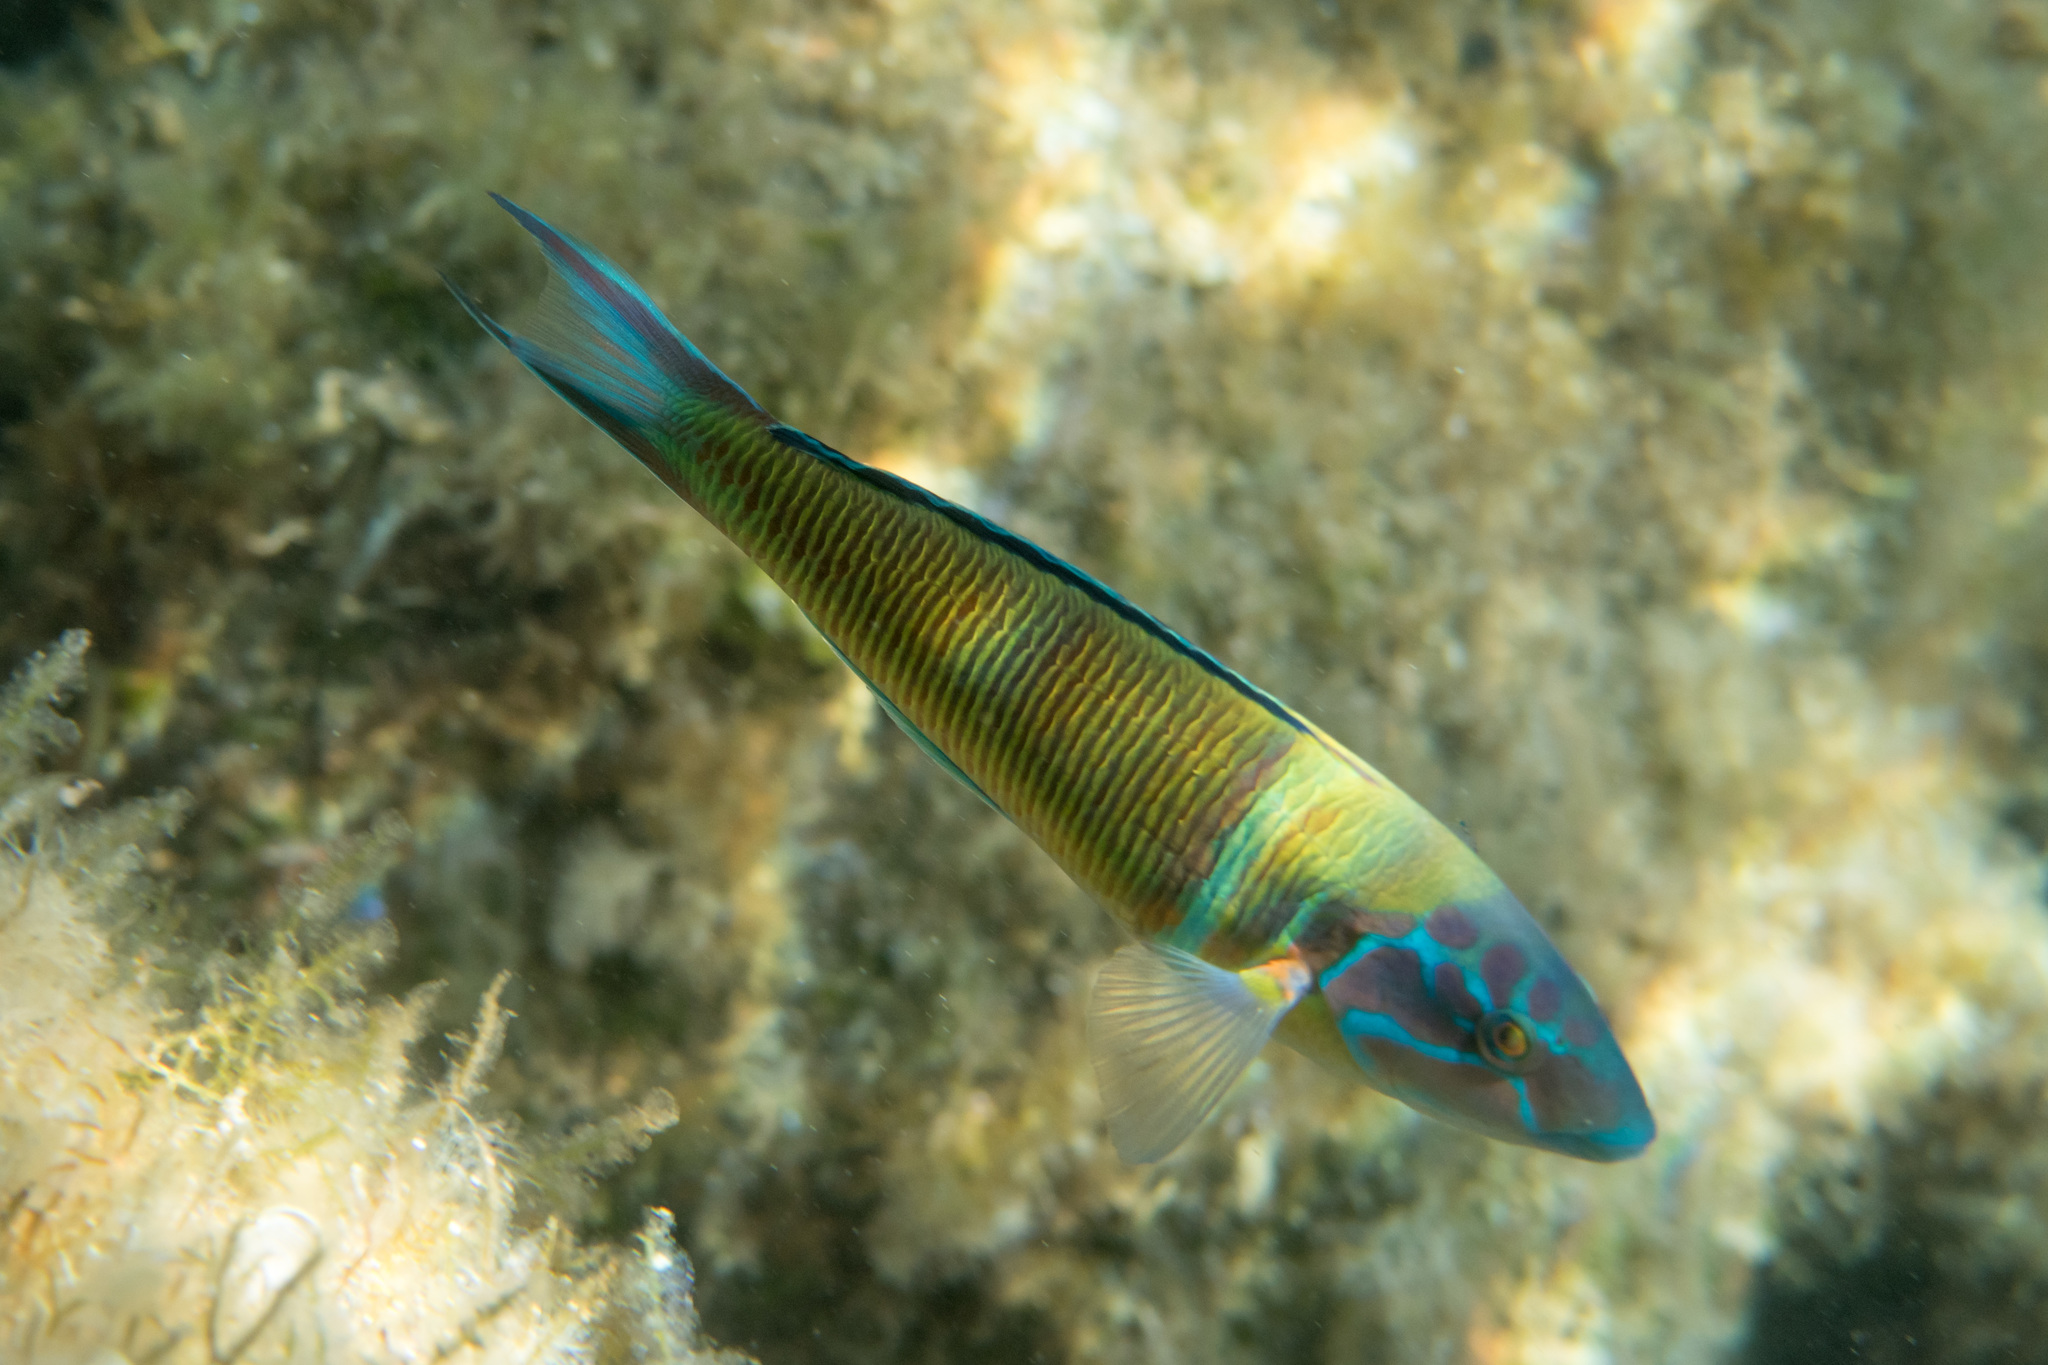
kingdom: Animalia
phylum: Chordata
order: Perciformes
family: Labridae
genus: Thalassoma
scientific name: Thalassoma pavo
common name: Ornate wrasse
